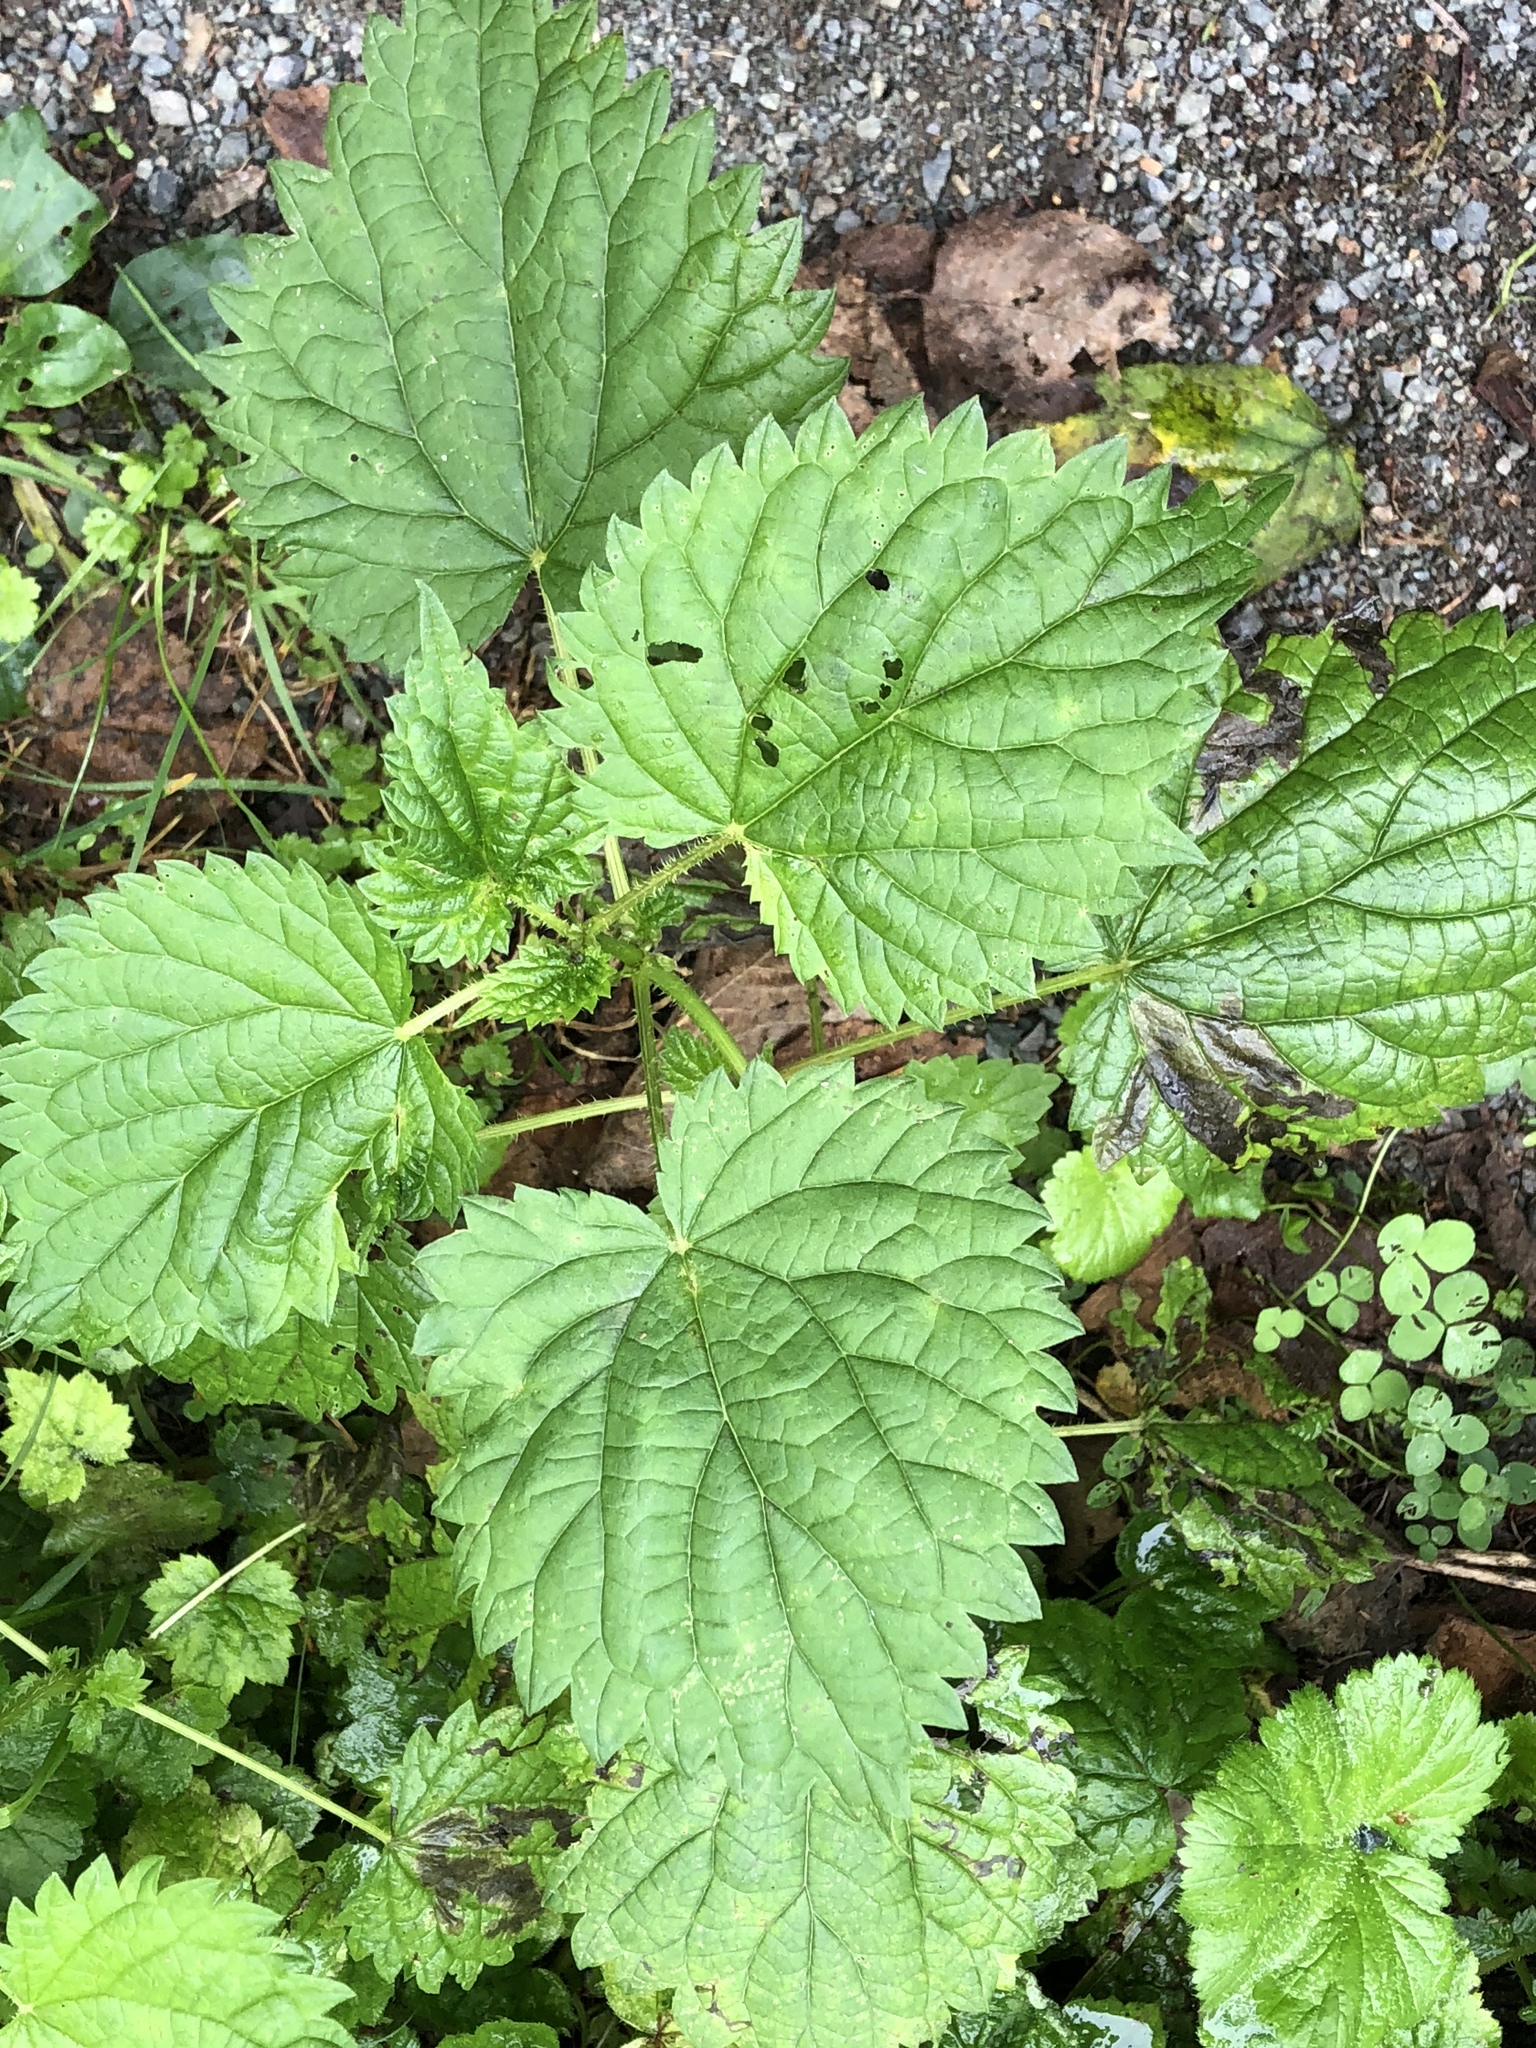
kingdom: Plantae
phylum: Tracheophyta
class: Magnoliopsida
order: Rosales
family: Urticaceae
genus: Urtica
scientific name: Urtica dioica
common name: Common nettle
